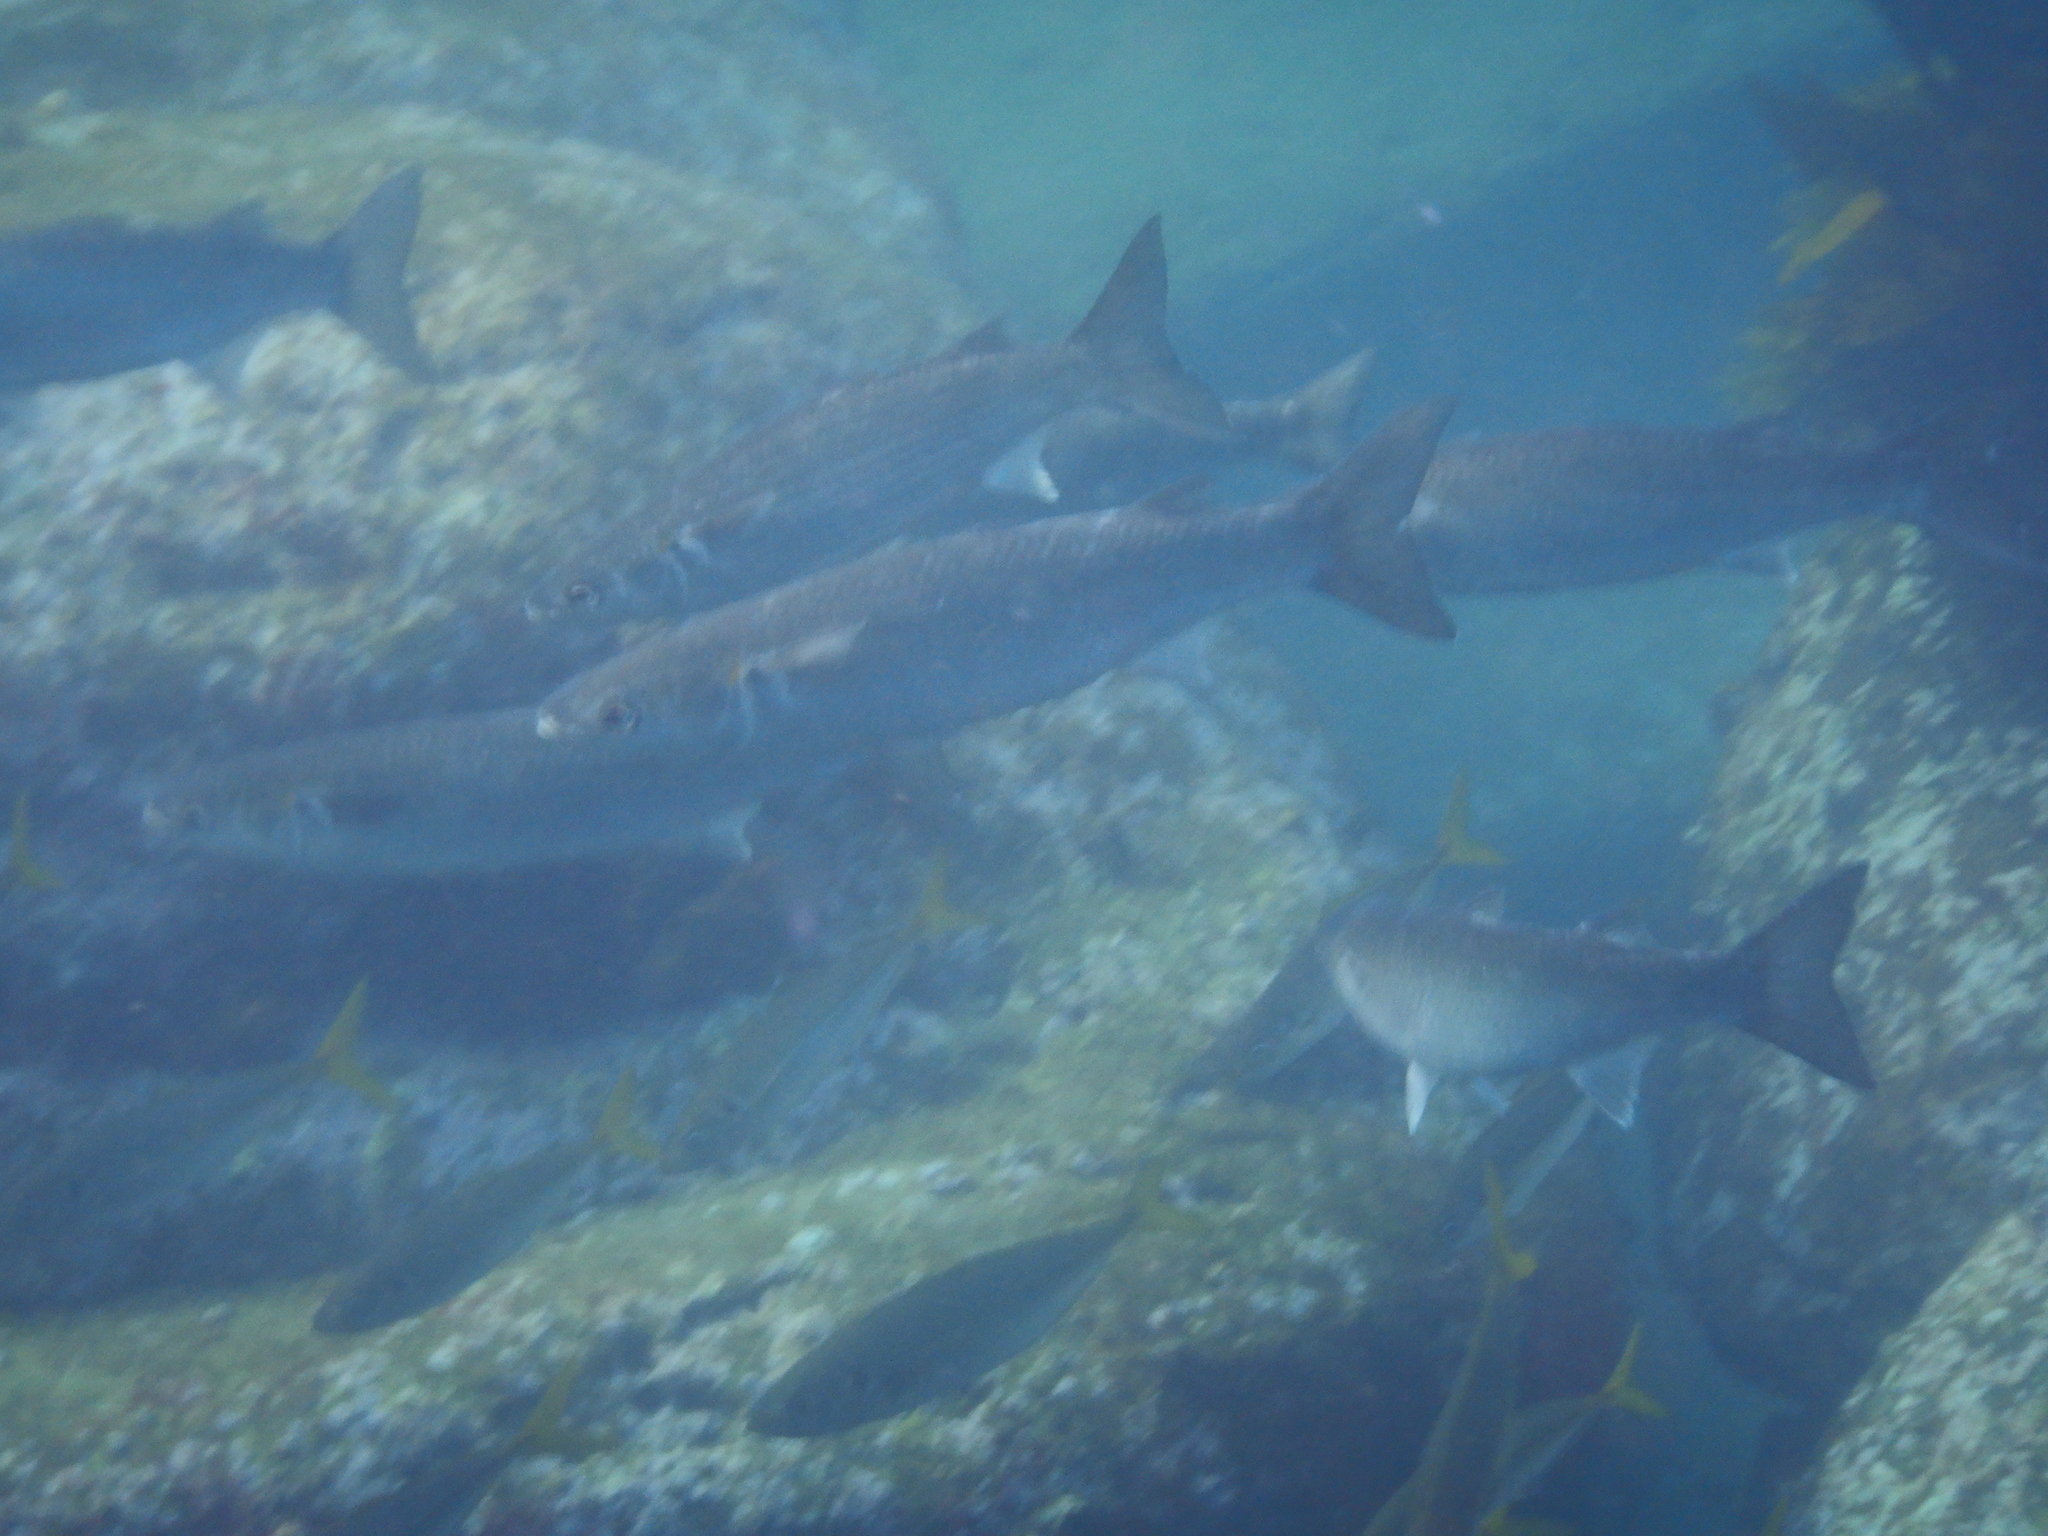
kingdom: Animalia
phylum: Chordata
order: Mugiliformes
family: Mugilidae
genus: Myxus
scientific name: Myxus elongatus
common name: Sand grey mullet
